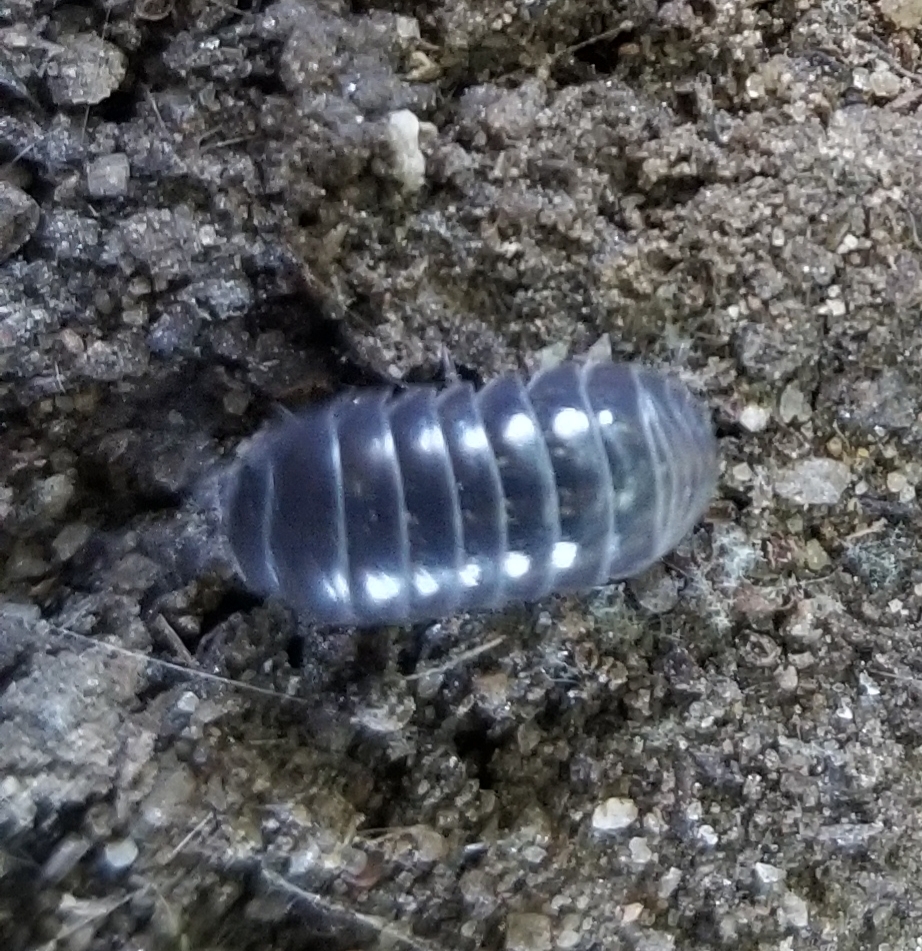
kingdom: Animalia
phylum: Arthropoda
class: Malacostraca
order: Isopoda
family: Armadillidiidae
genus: Armadillidium
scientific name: Armadillidium vulgare
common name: Common pill woodlouse
